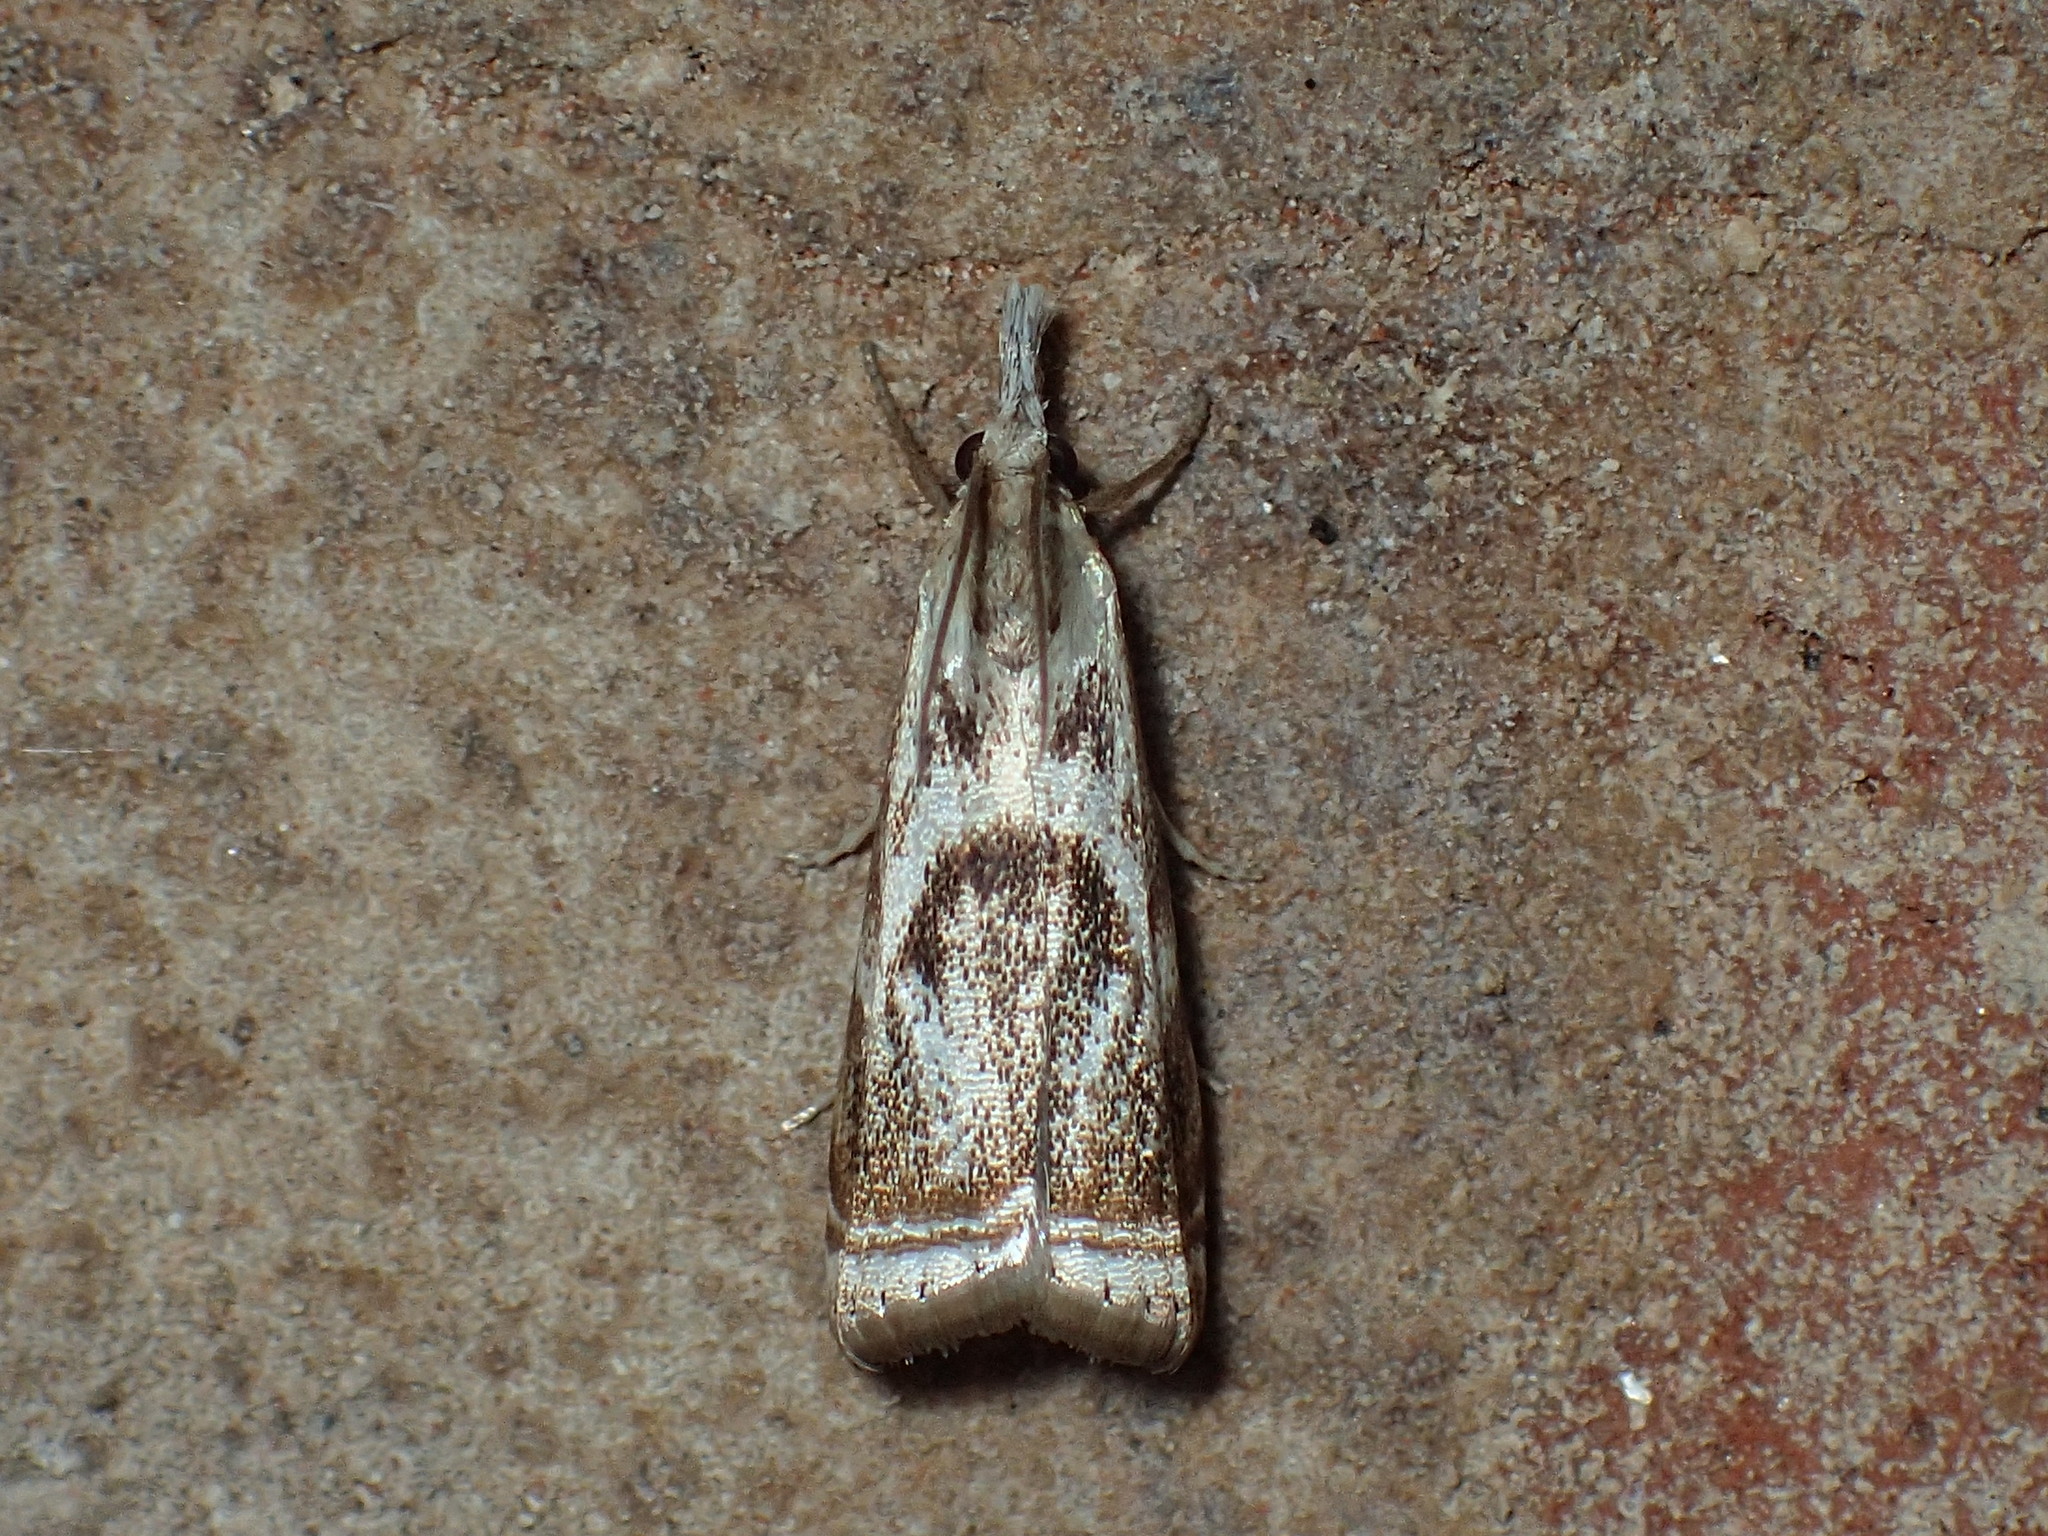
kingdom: Animalia
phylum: Arthropoda
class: Insecta
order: Lepidoptera
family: Crambidae
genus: Microcrambus
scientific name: Microcrambus elegans
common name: Elegant grass-veneer
